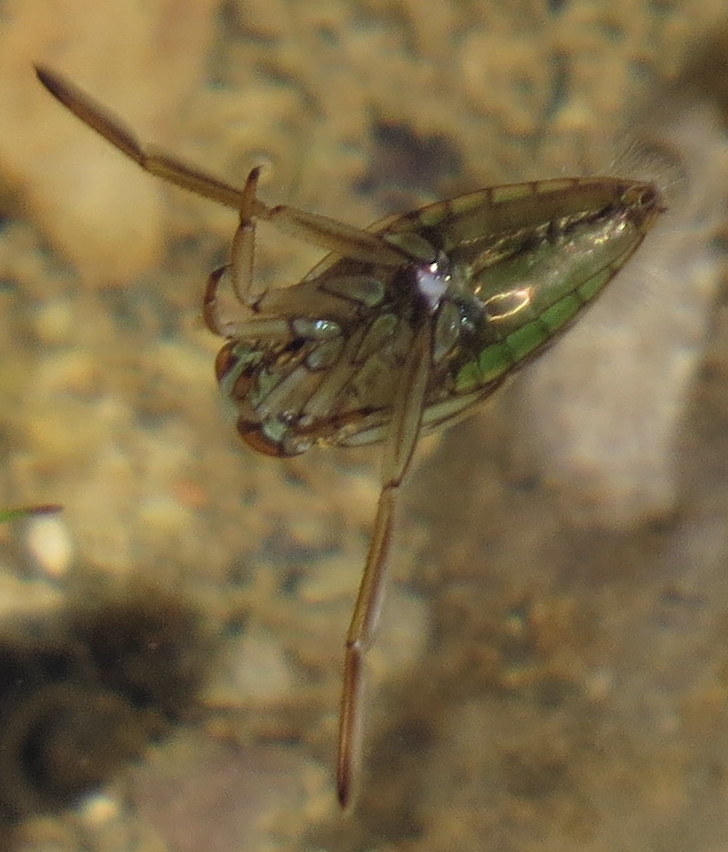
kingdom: Animalia
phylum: Arthropoda
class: Insecta
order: Hemiptera
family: Notonectidae
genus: Notonecta
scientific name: Notonecta
